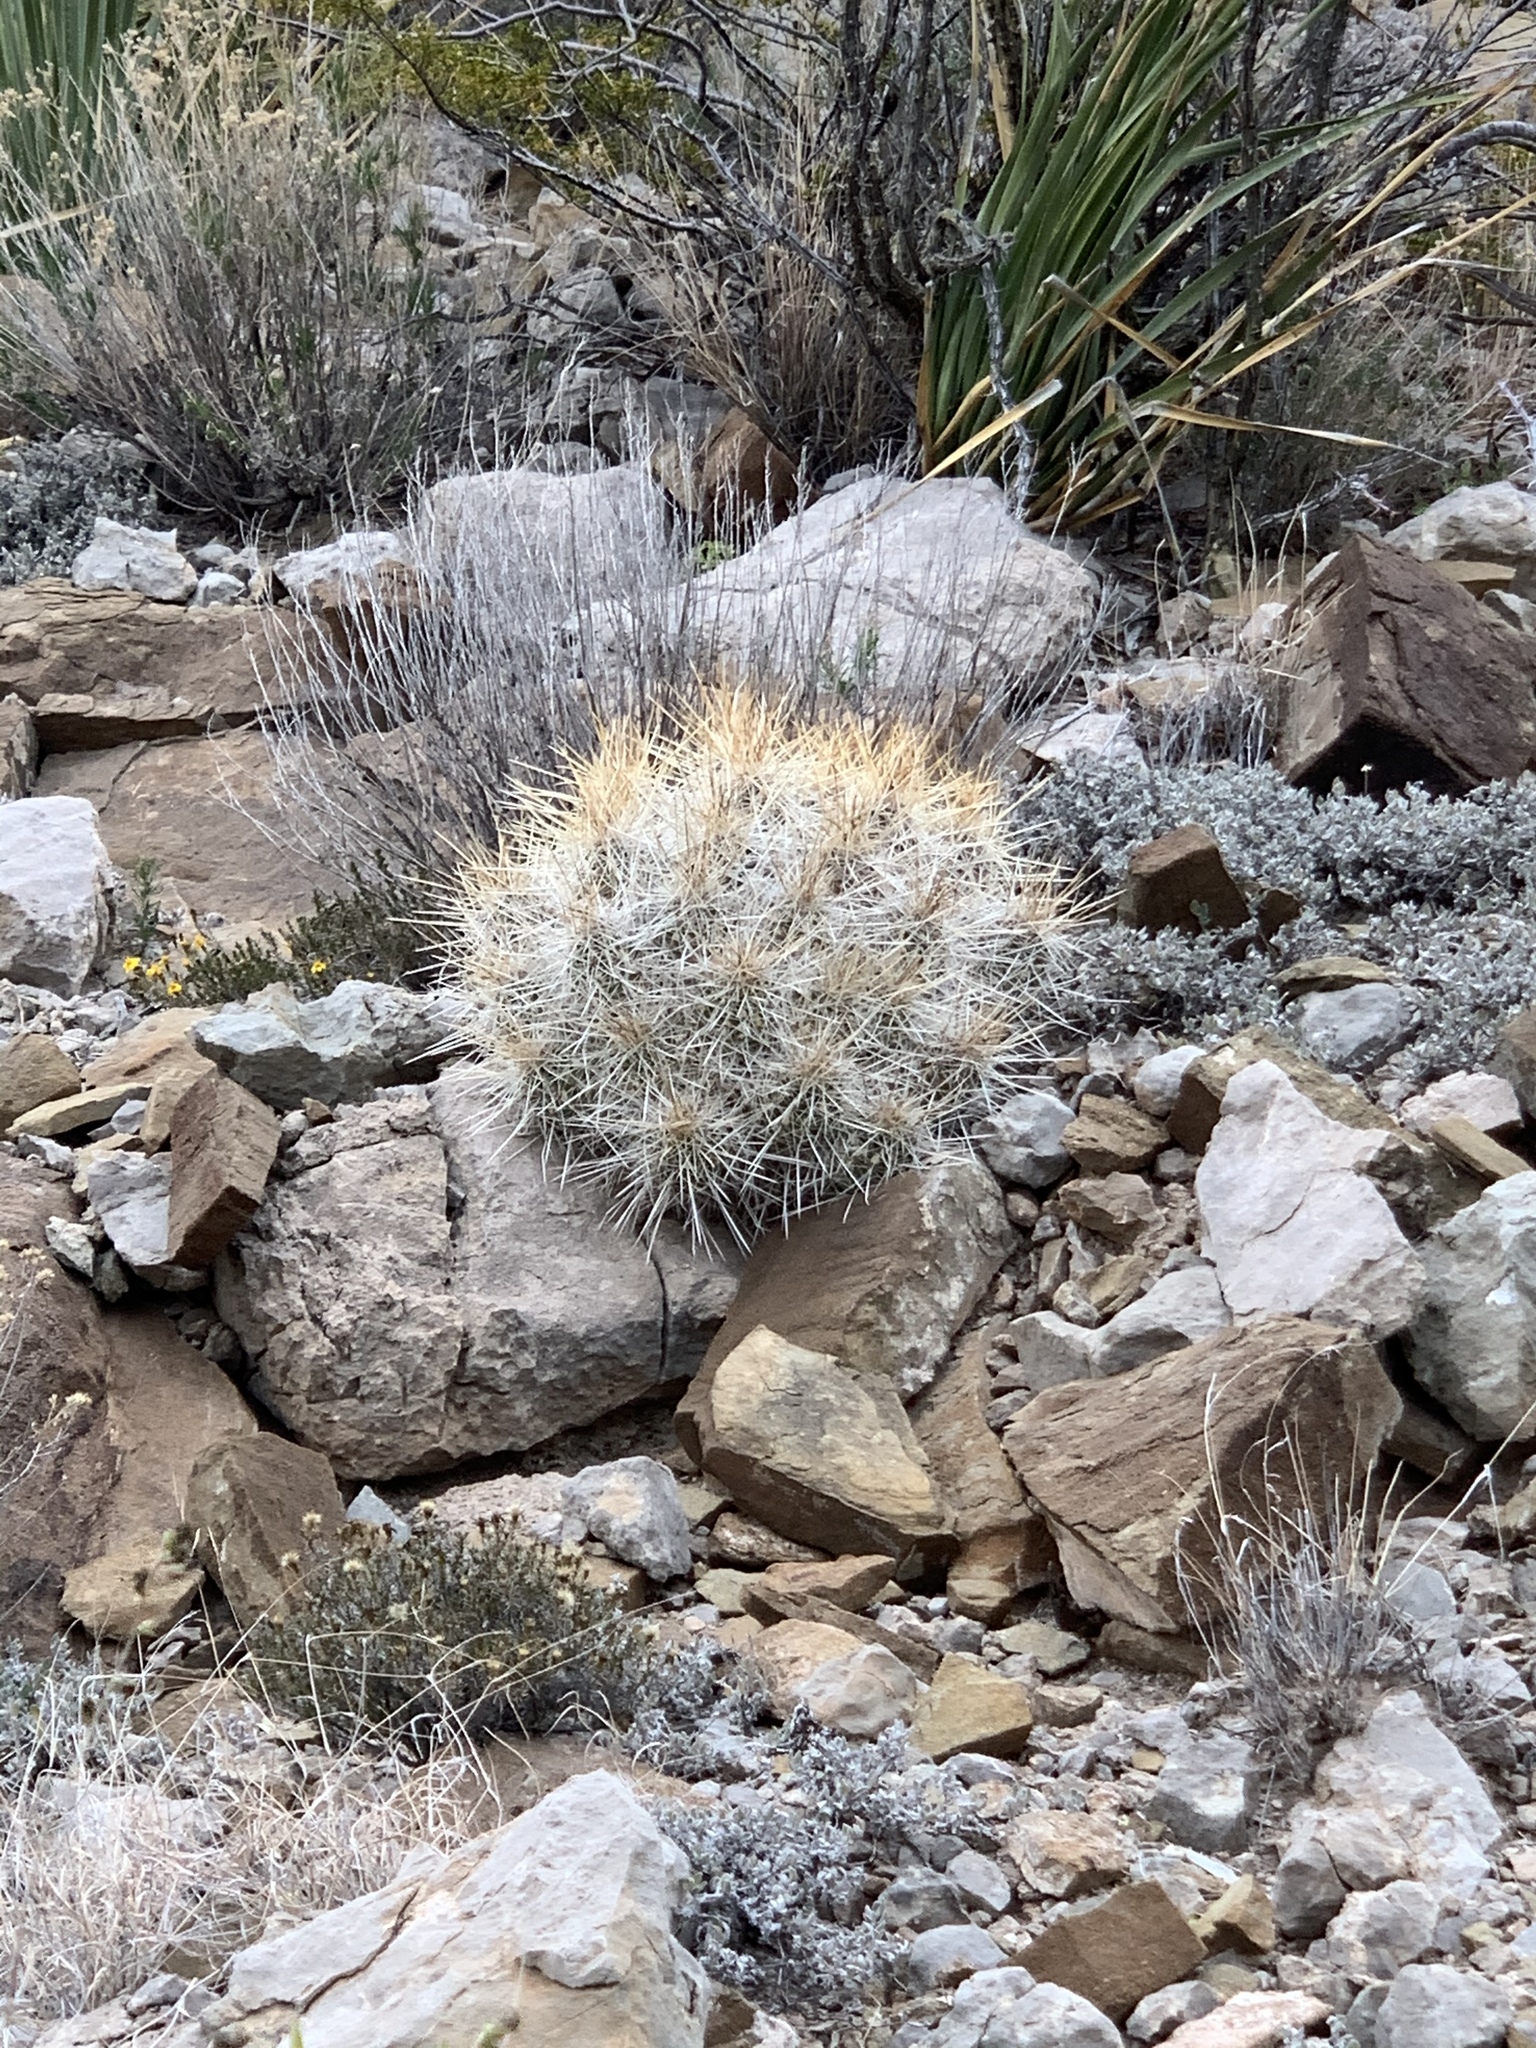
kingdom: Plantae
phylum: Tracheophyta
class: Magnoliopsida
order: Caryophyllales
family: Cactaceae
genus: Echinocereus
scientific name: Echinocereus stramineus
